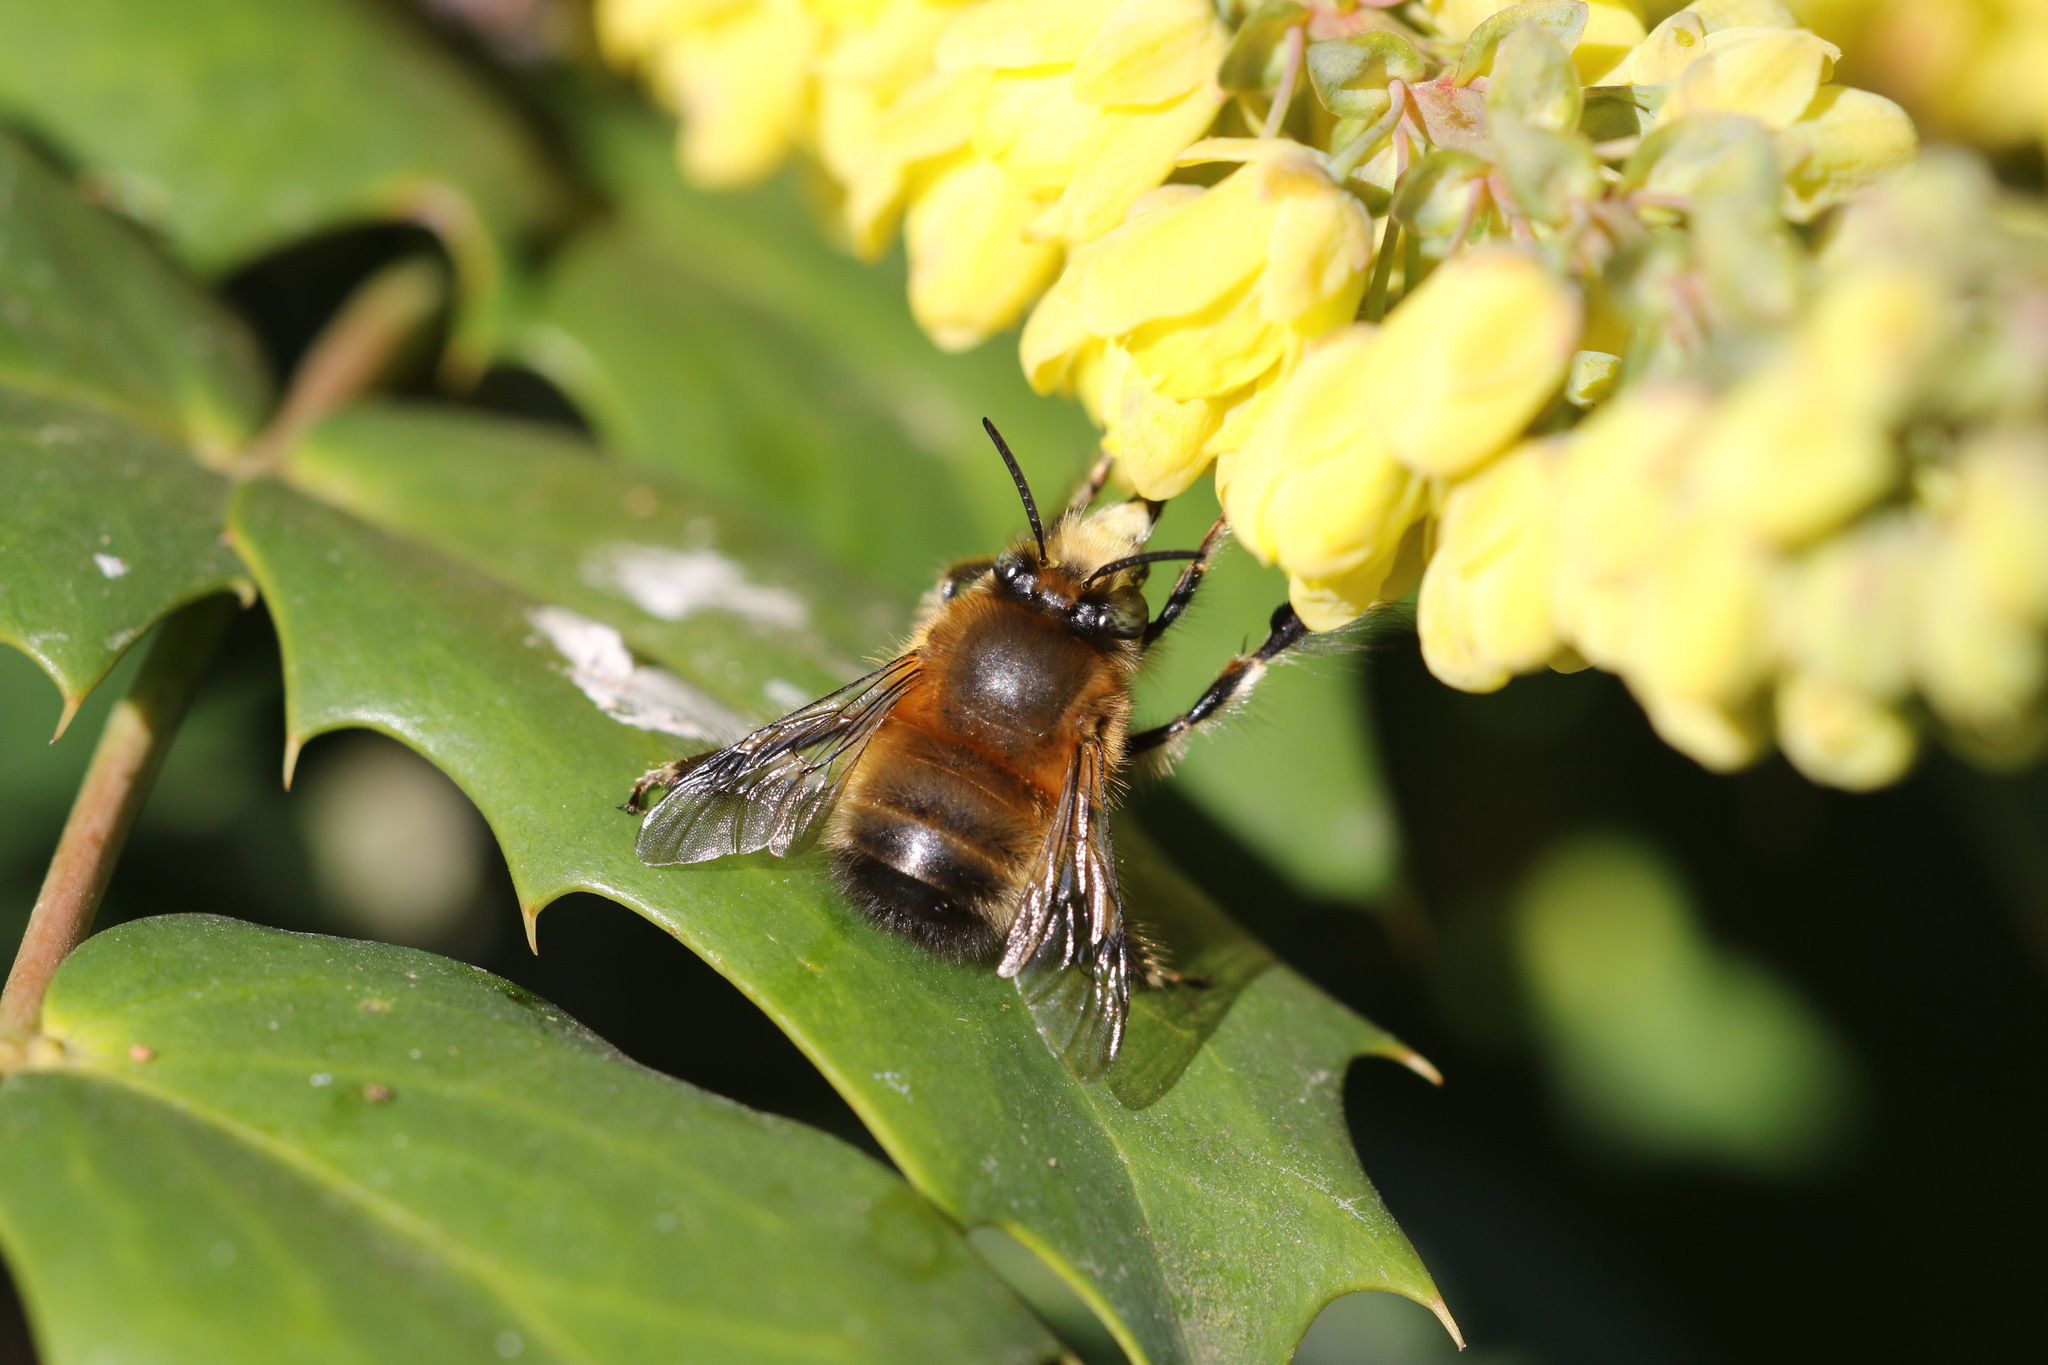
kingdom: Animalia
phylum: Arthropoda
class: Insecta
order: Hymenoptera
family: Apidae
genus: Anthophora
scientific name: Anthophora plumipes
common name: Hairy-footed flower bee
